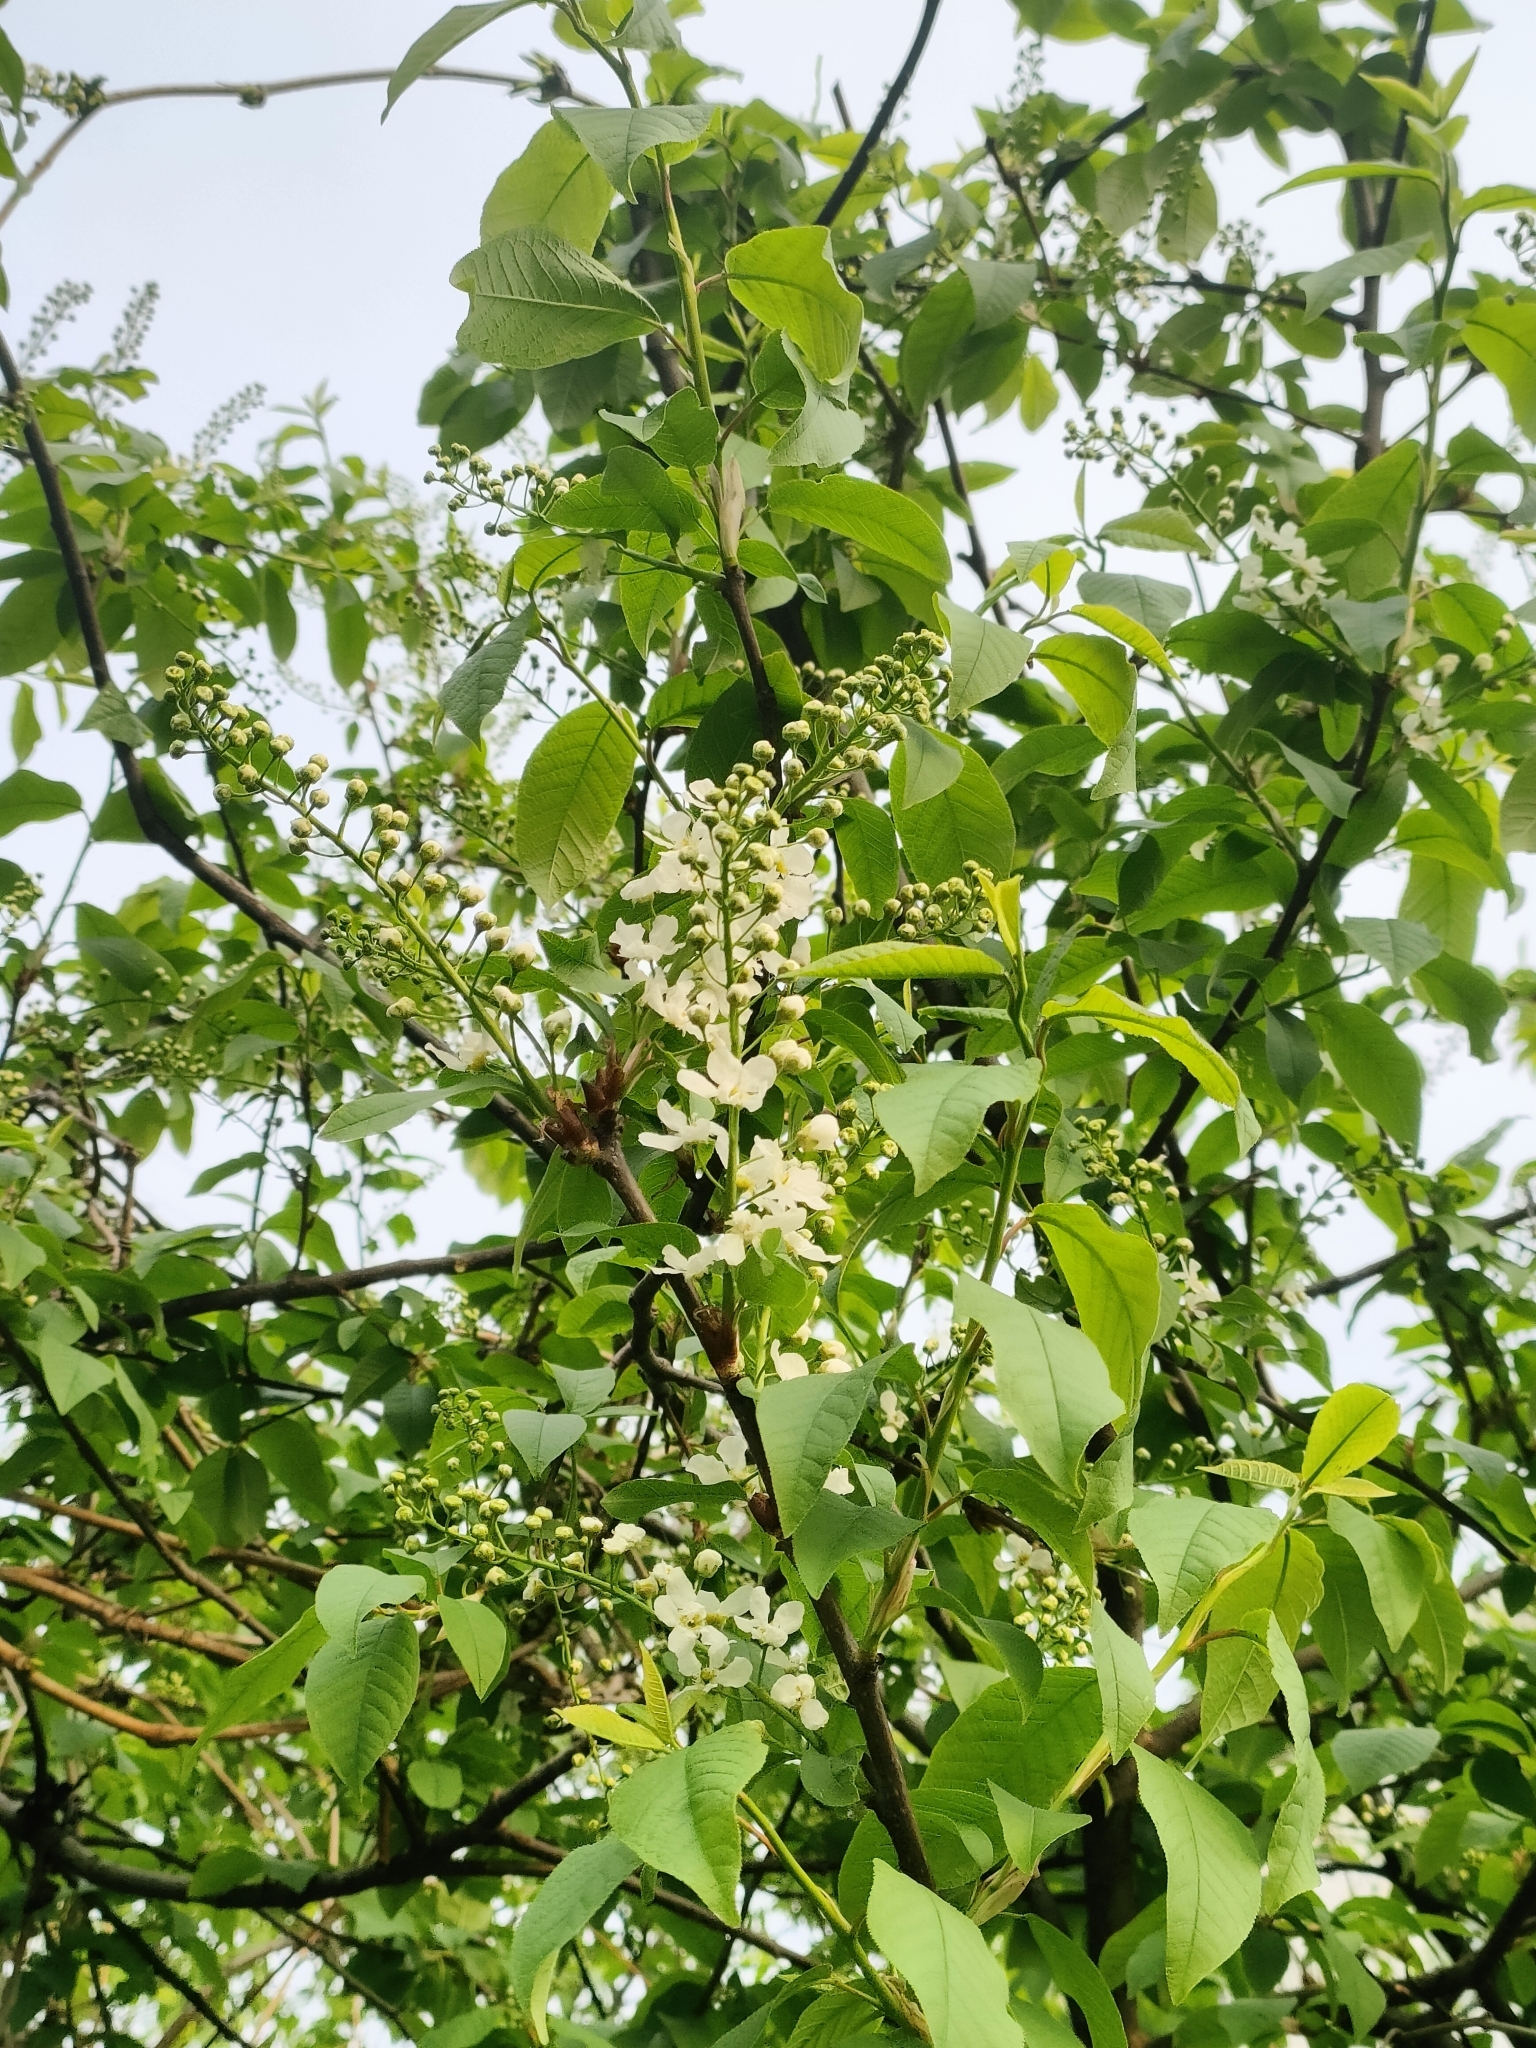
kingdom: Plantae
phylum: Tracheophyta
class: Magnoliopsida
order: Rosales
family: Rosaceae
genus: Prunus
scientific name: Prunus padus
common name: Bird cherry
